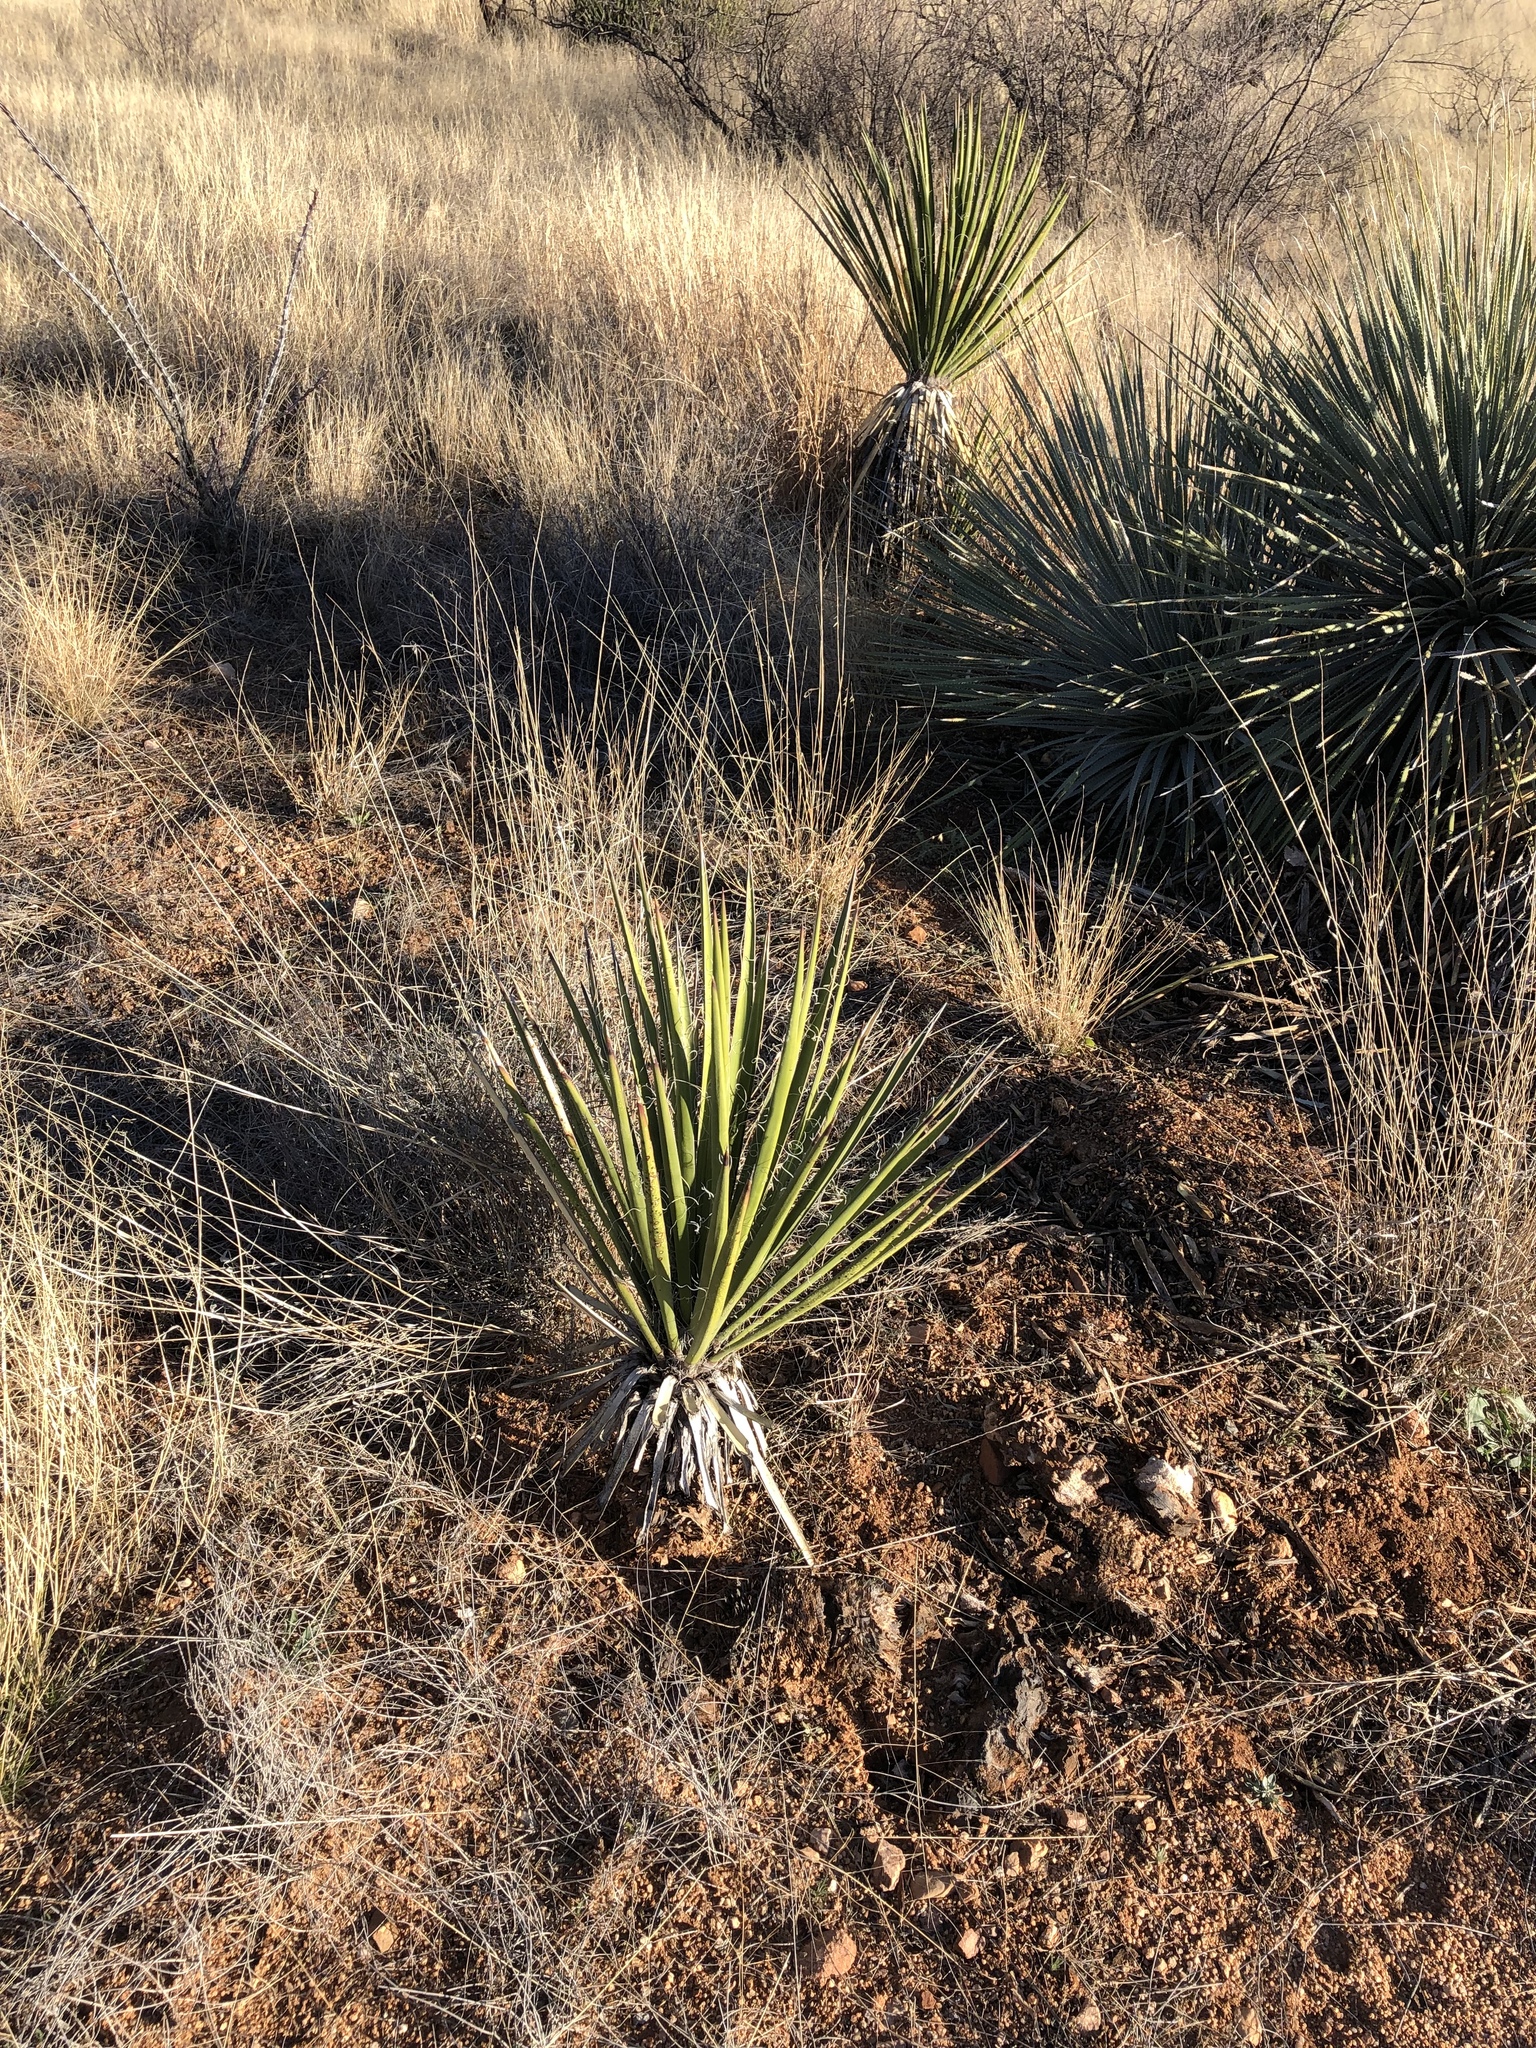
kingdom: Plantae
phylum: Tracheophyta
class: Liliopsida
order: Asparagales
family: Asparagaceae
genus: Yucca
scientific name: Yucca baccata
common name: Banana yucca
